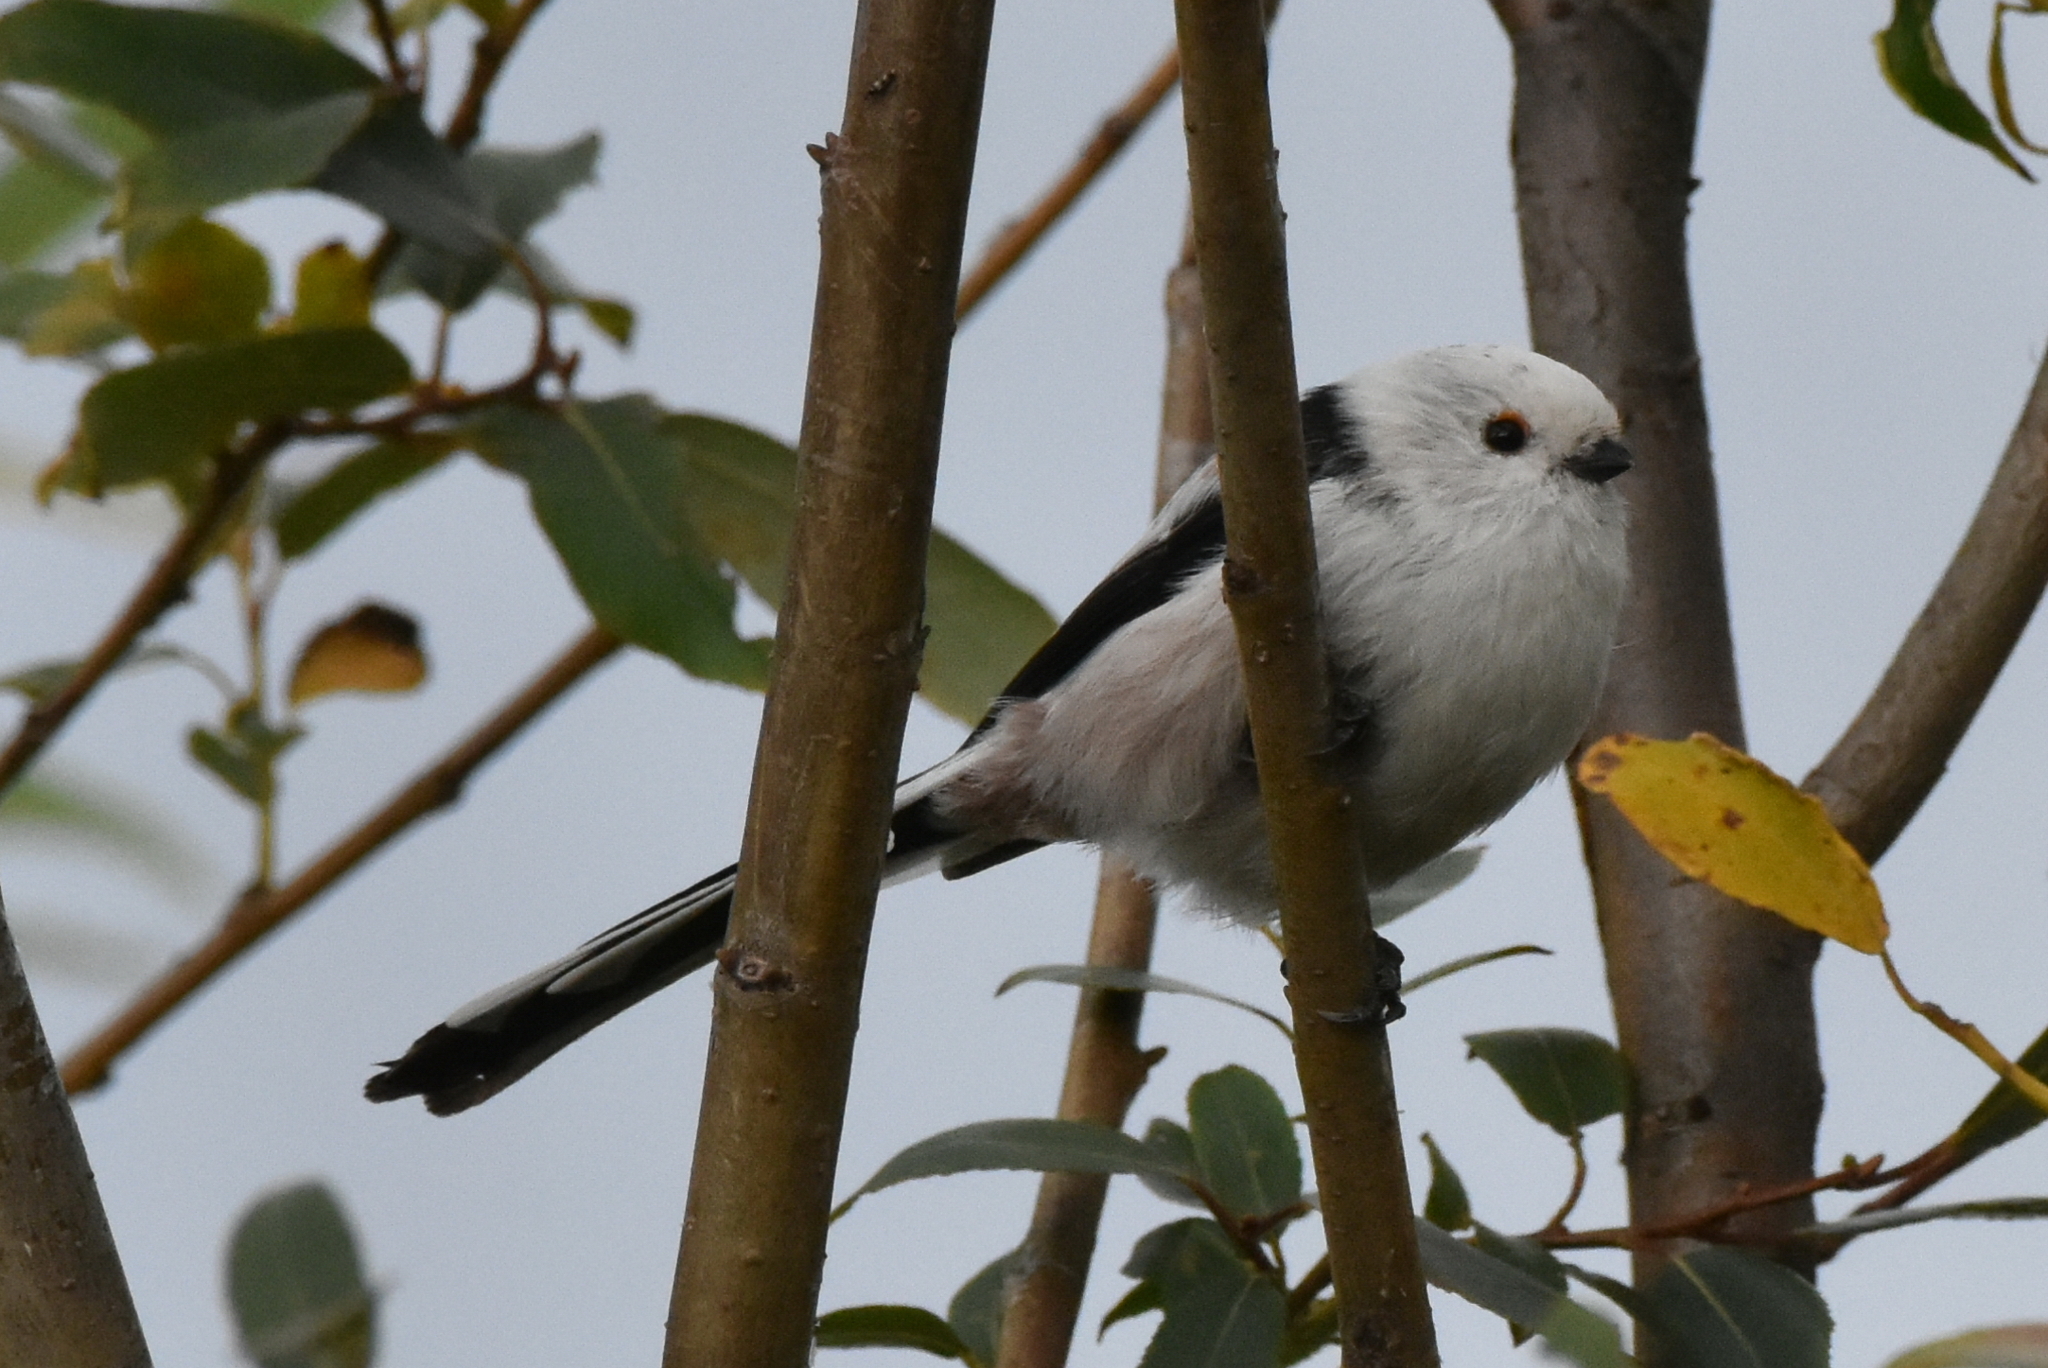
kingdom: Animalia
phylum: Chordata
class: Aves
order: Passeriformes
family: Aegithalidae
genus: Aegithalos
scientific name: Aegithalos caudatus
